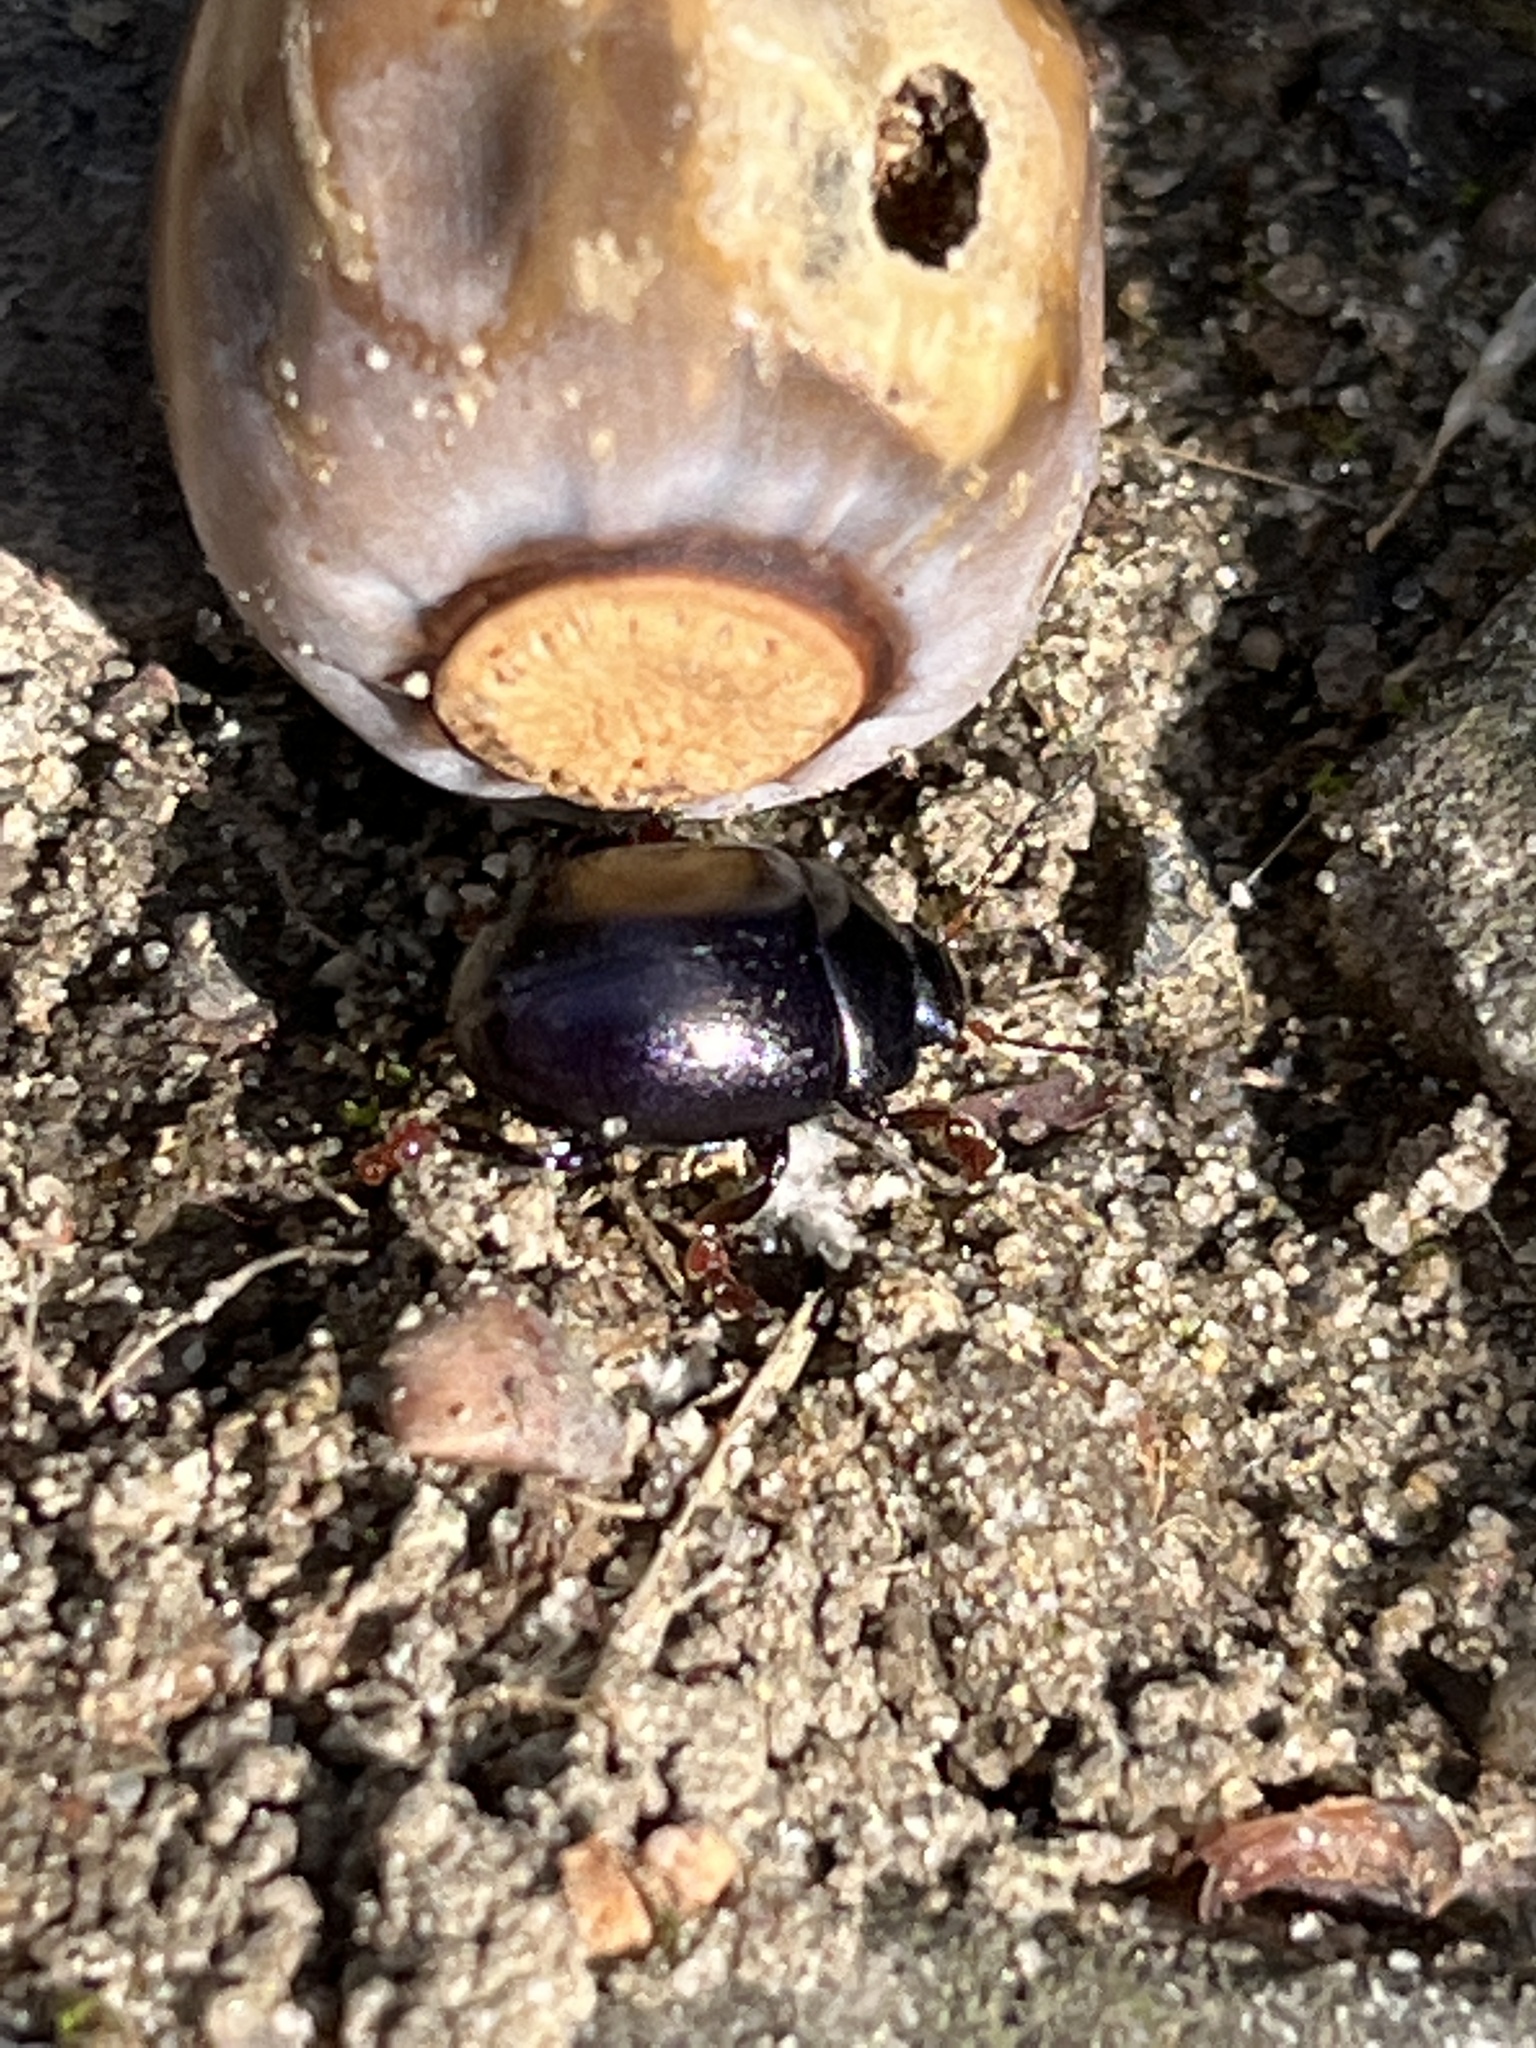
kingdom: Animalia
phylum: Arthropoda
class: Insecta
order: Coleoptera
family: Chrysomelidae
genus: Chrysolina
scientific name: Chrysolina sturmi
